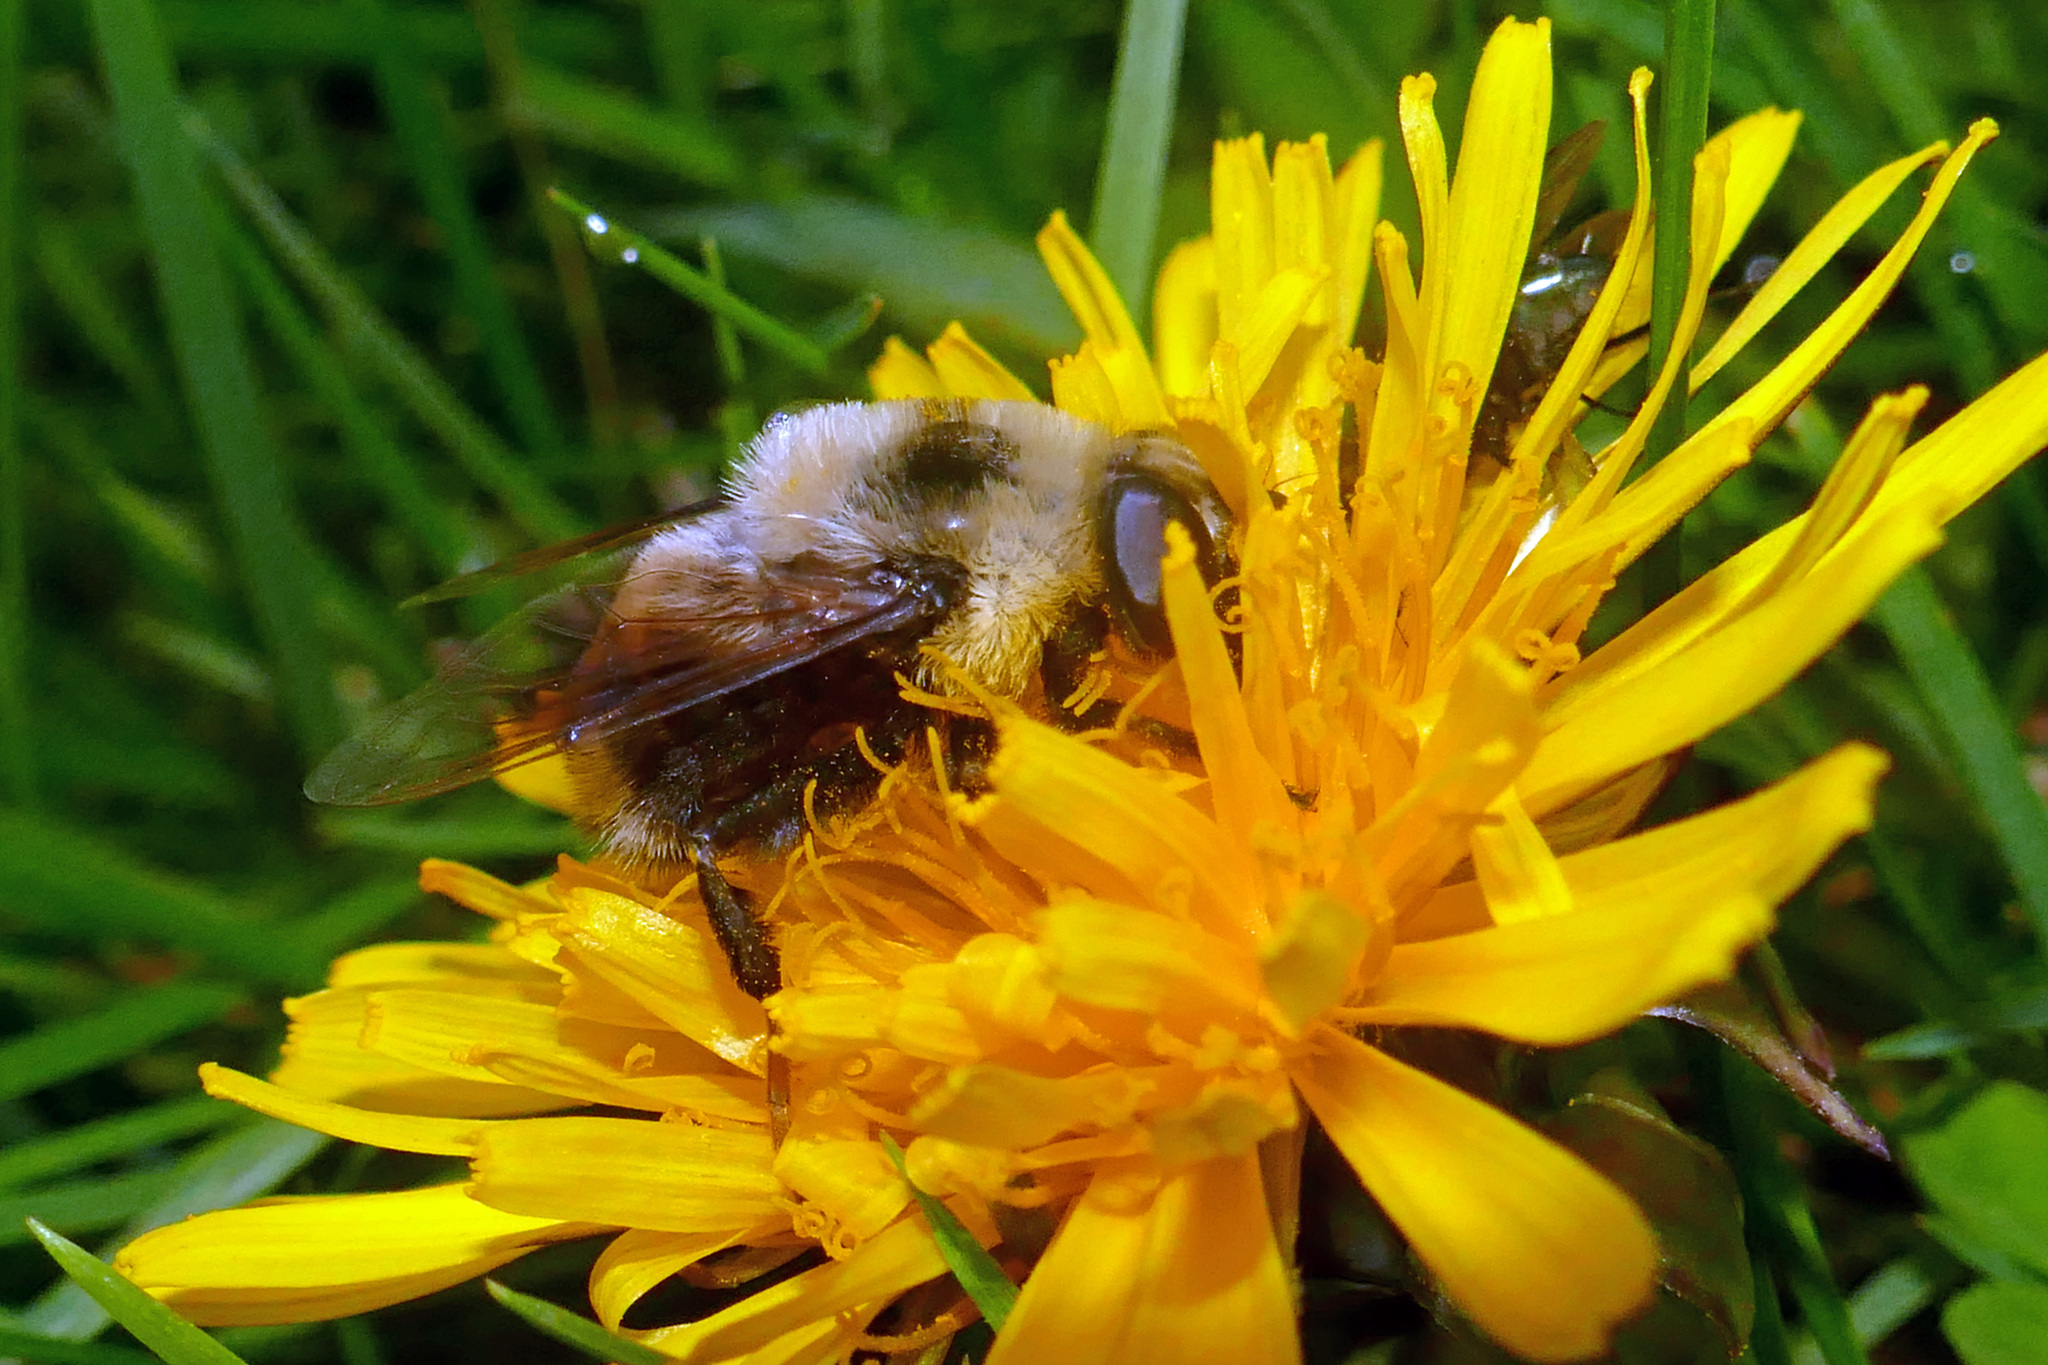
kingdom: Animalia
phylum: Arthropoda
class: Insecta
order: Diptera
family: Syrphidae
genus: Eristalis
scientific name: Eristalis flavipes
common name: Orange-legged drone fly
